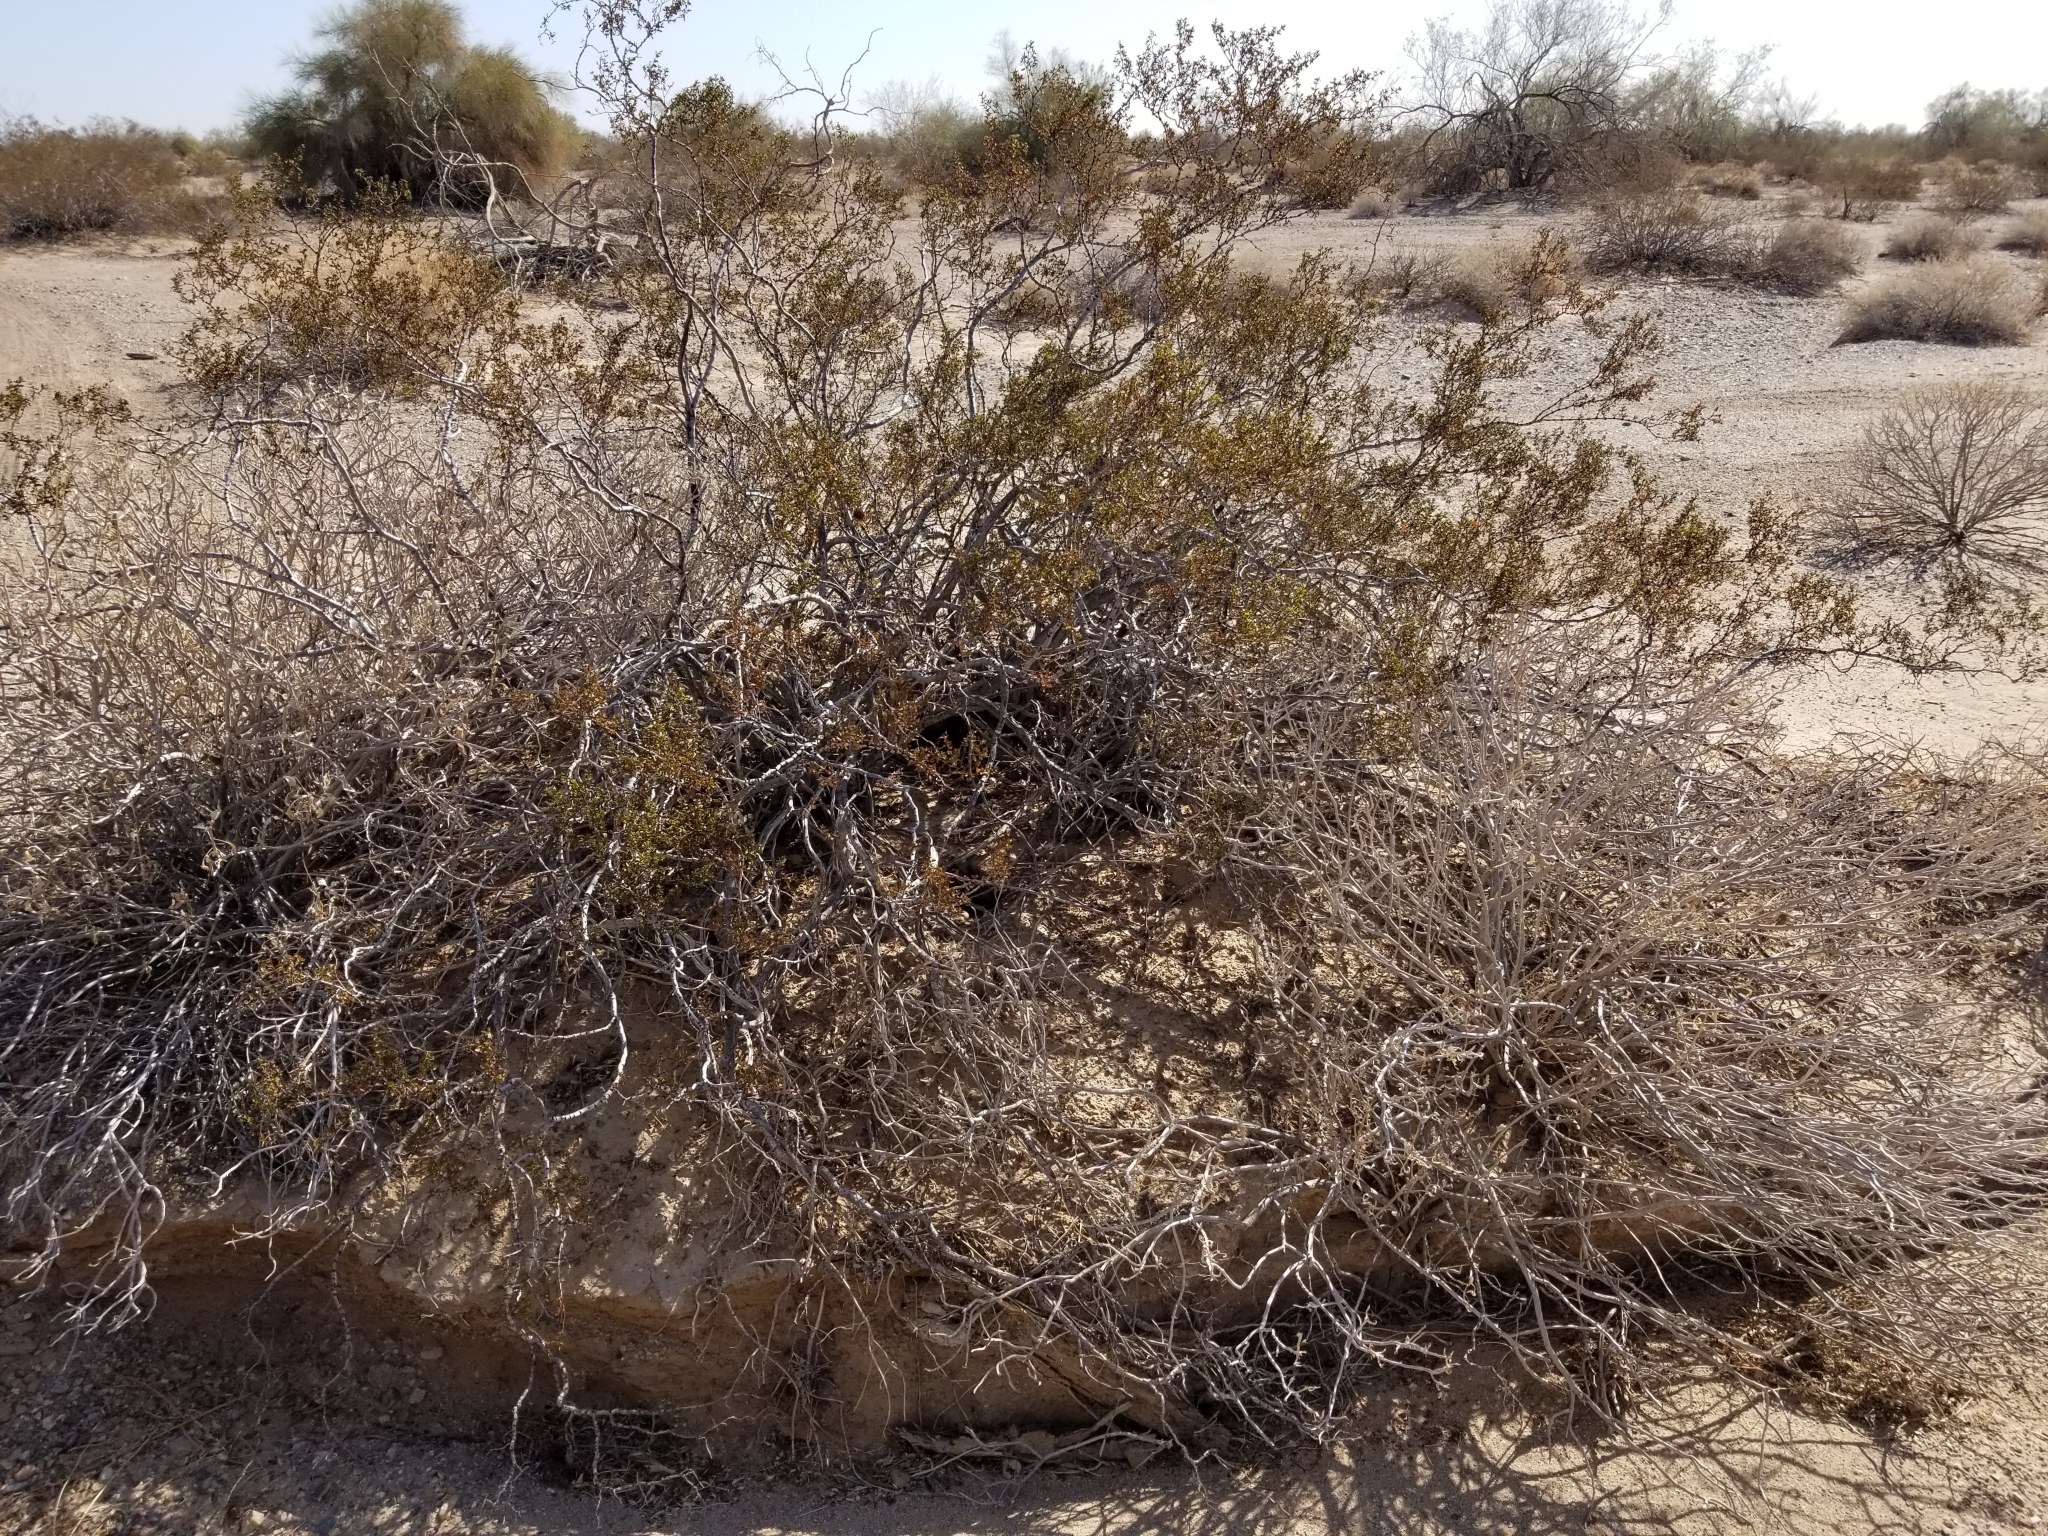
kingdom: Plantae
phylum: Tracheophyta
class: Magnoliopsida
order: Zygophyllales
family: Zygophyllaceae
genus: Larrea
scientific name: Larrea tridentata
